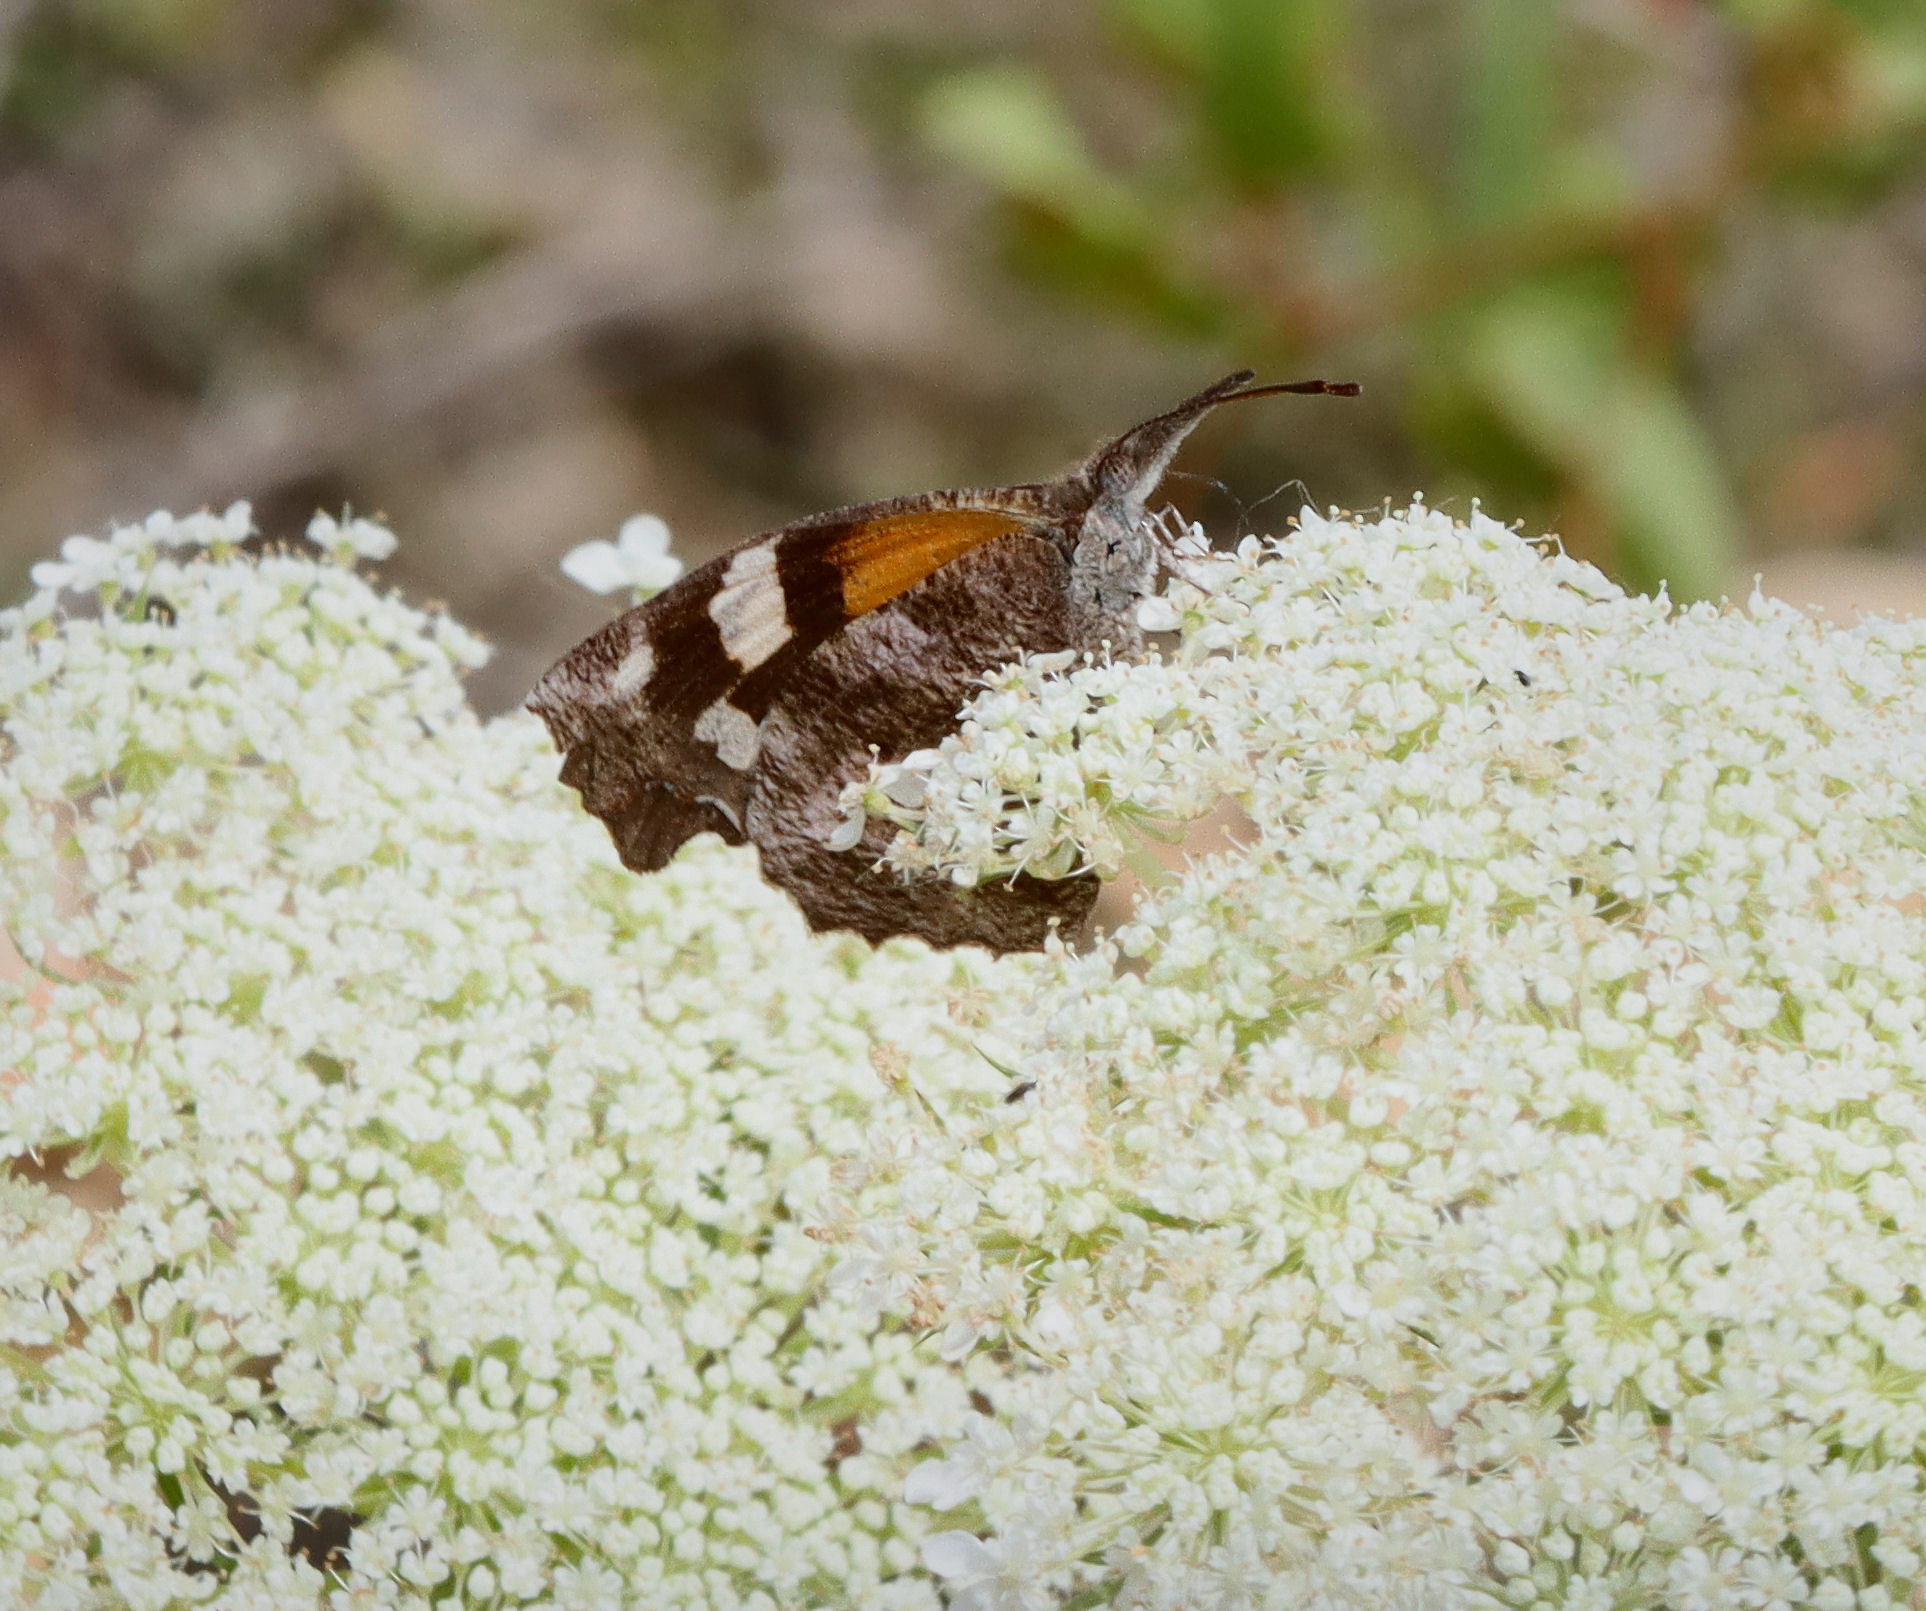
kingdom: Animalia
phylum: Arthropoda
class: Insecta
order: Lepidoptera
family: Nymphalidae
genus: Libytheana
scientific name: Libytheana carinenta
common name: American snout
